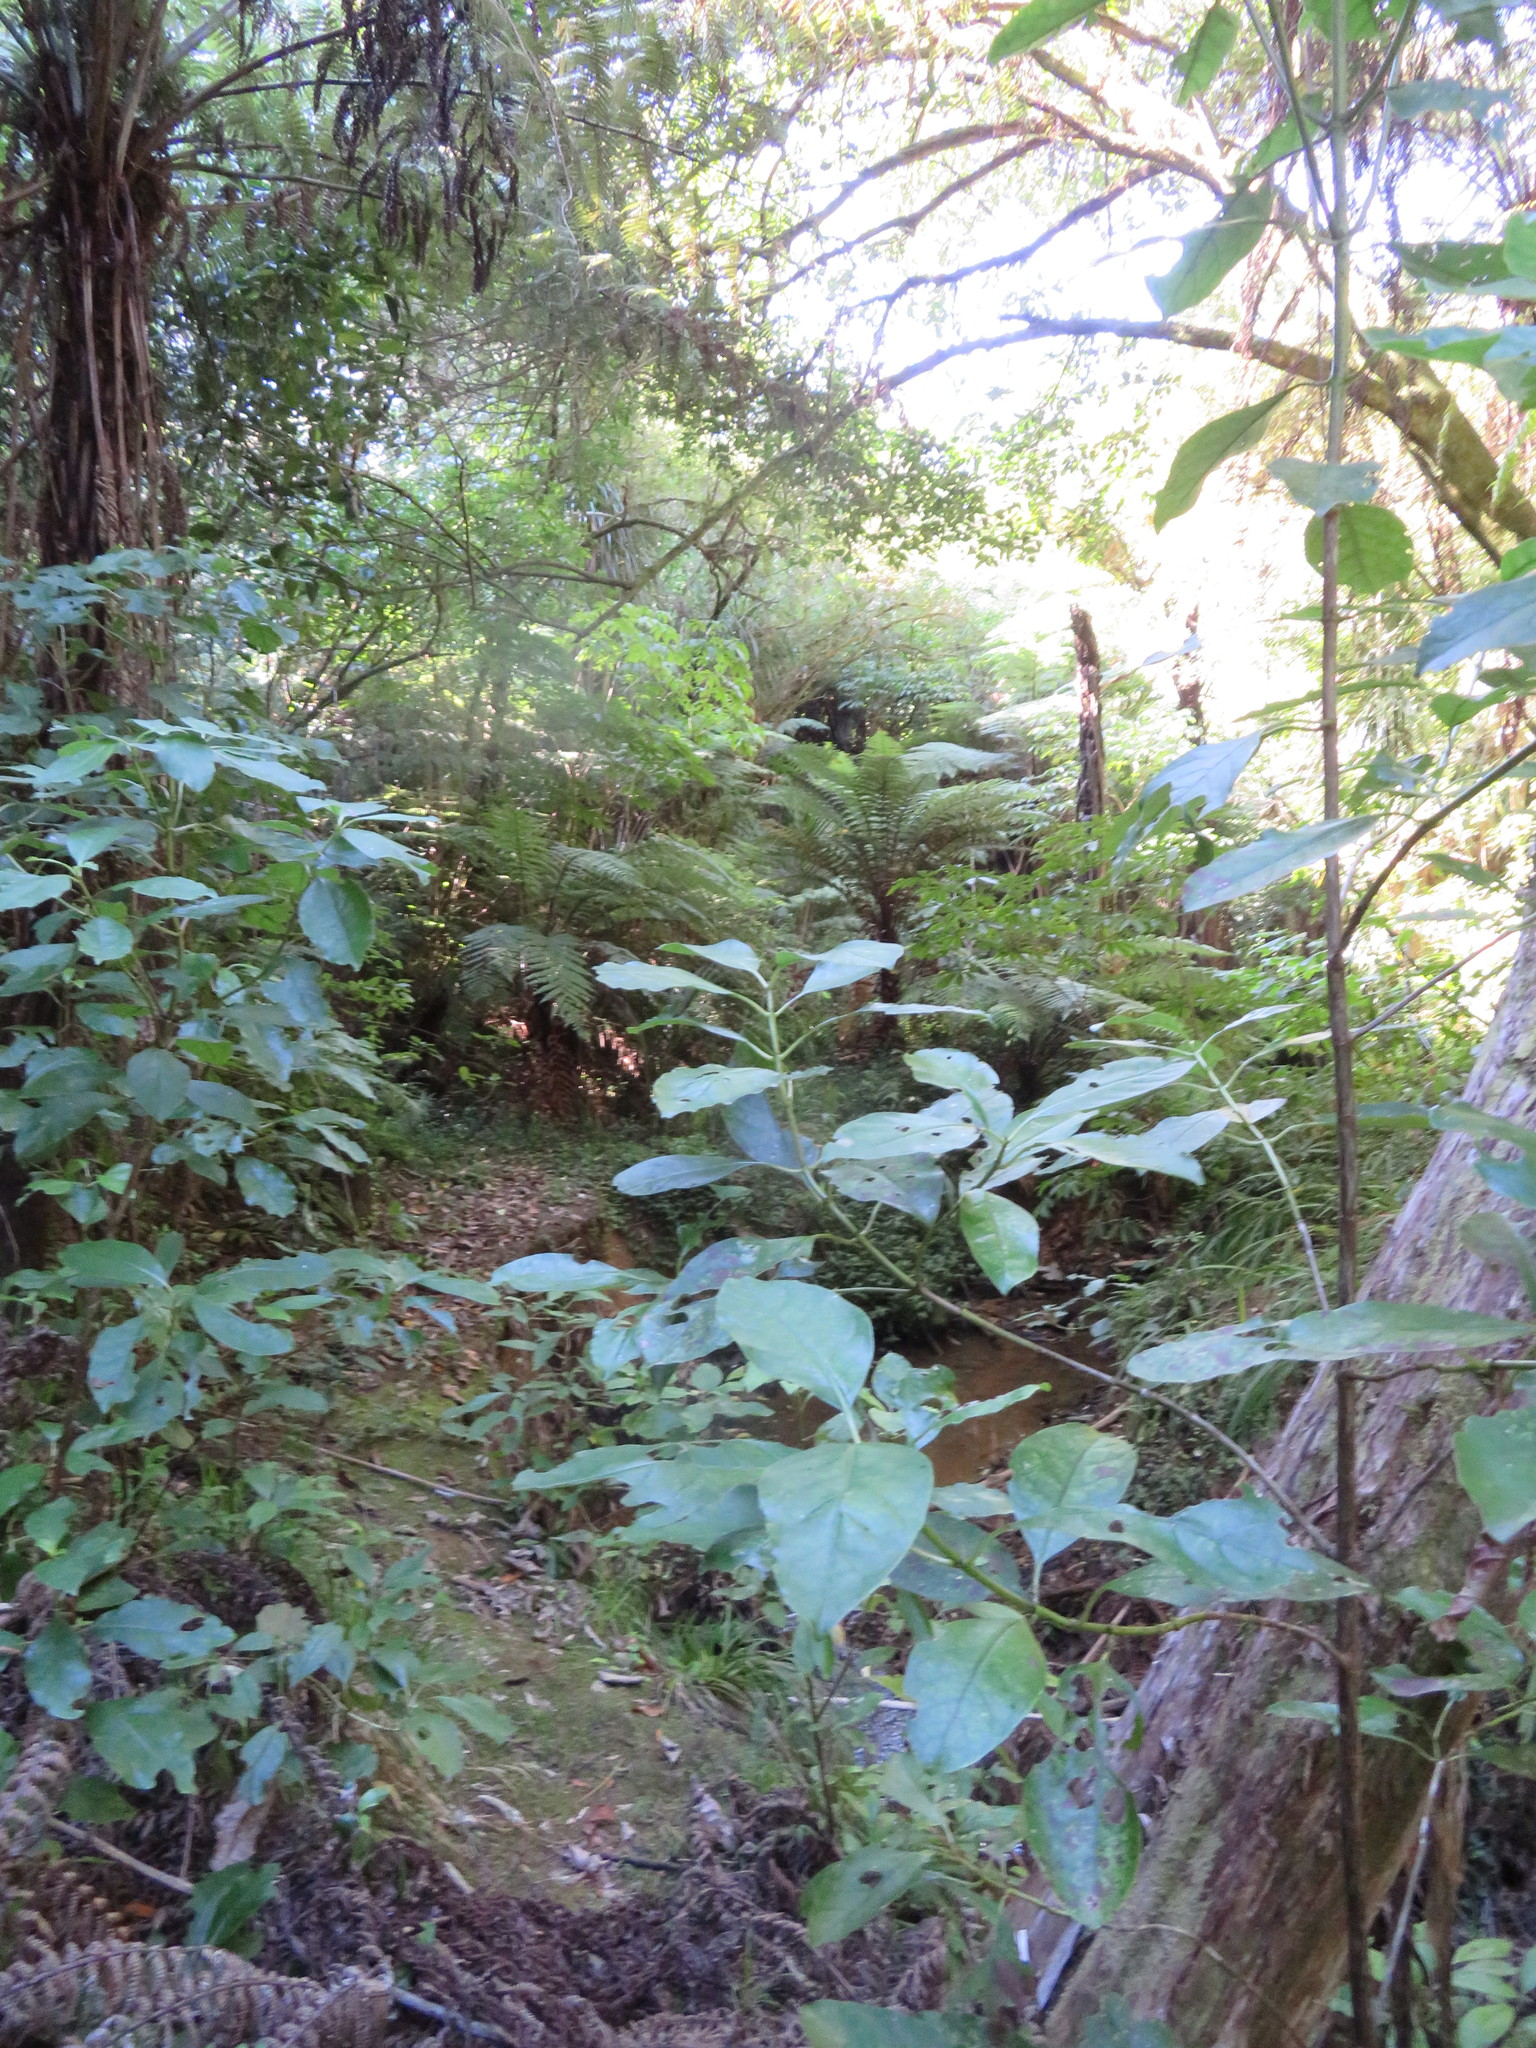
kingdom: Plantae
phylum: Tracheophyta
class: Magnoliopsida
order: Gentianales
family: Rubiaceae
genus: Coprosma
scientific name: Coprosma autumnalis
